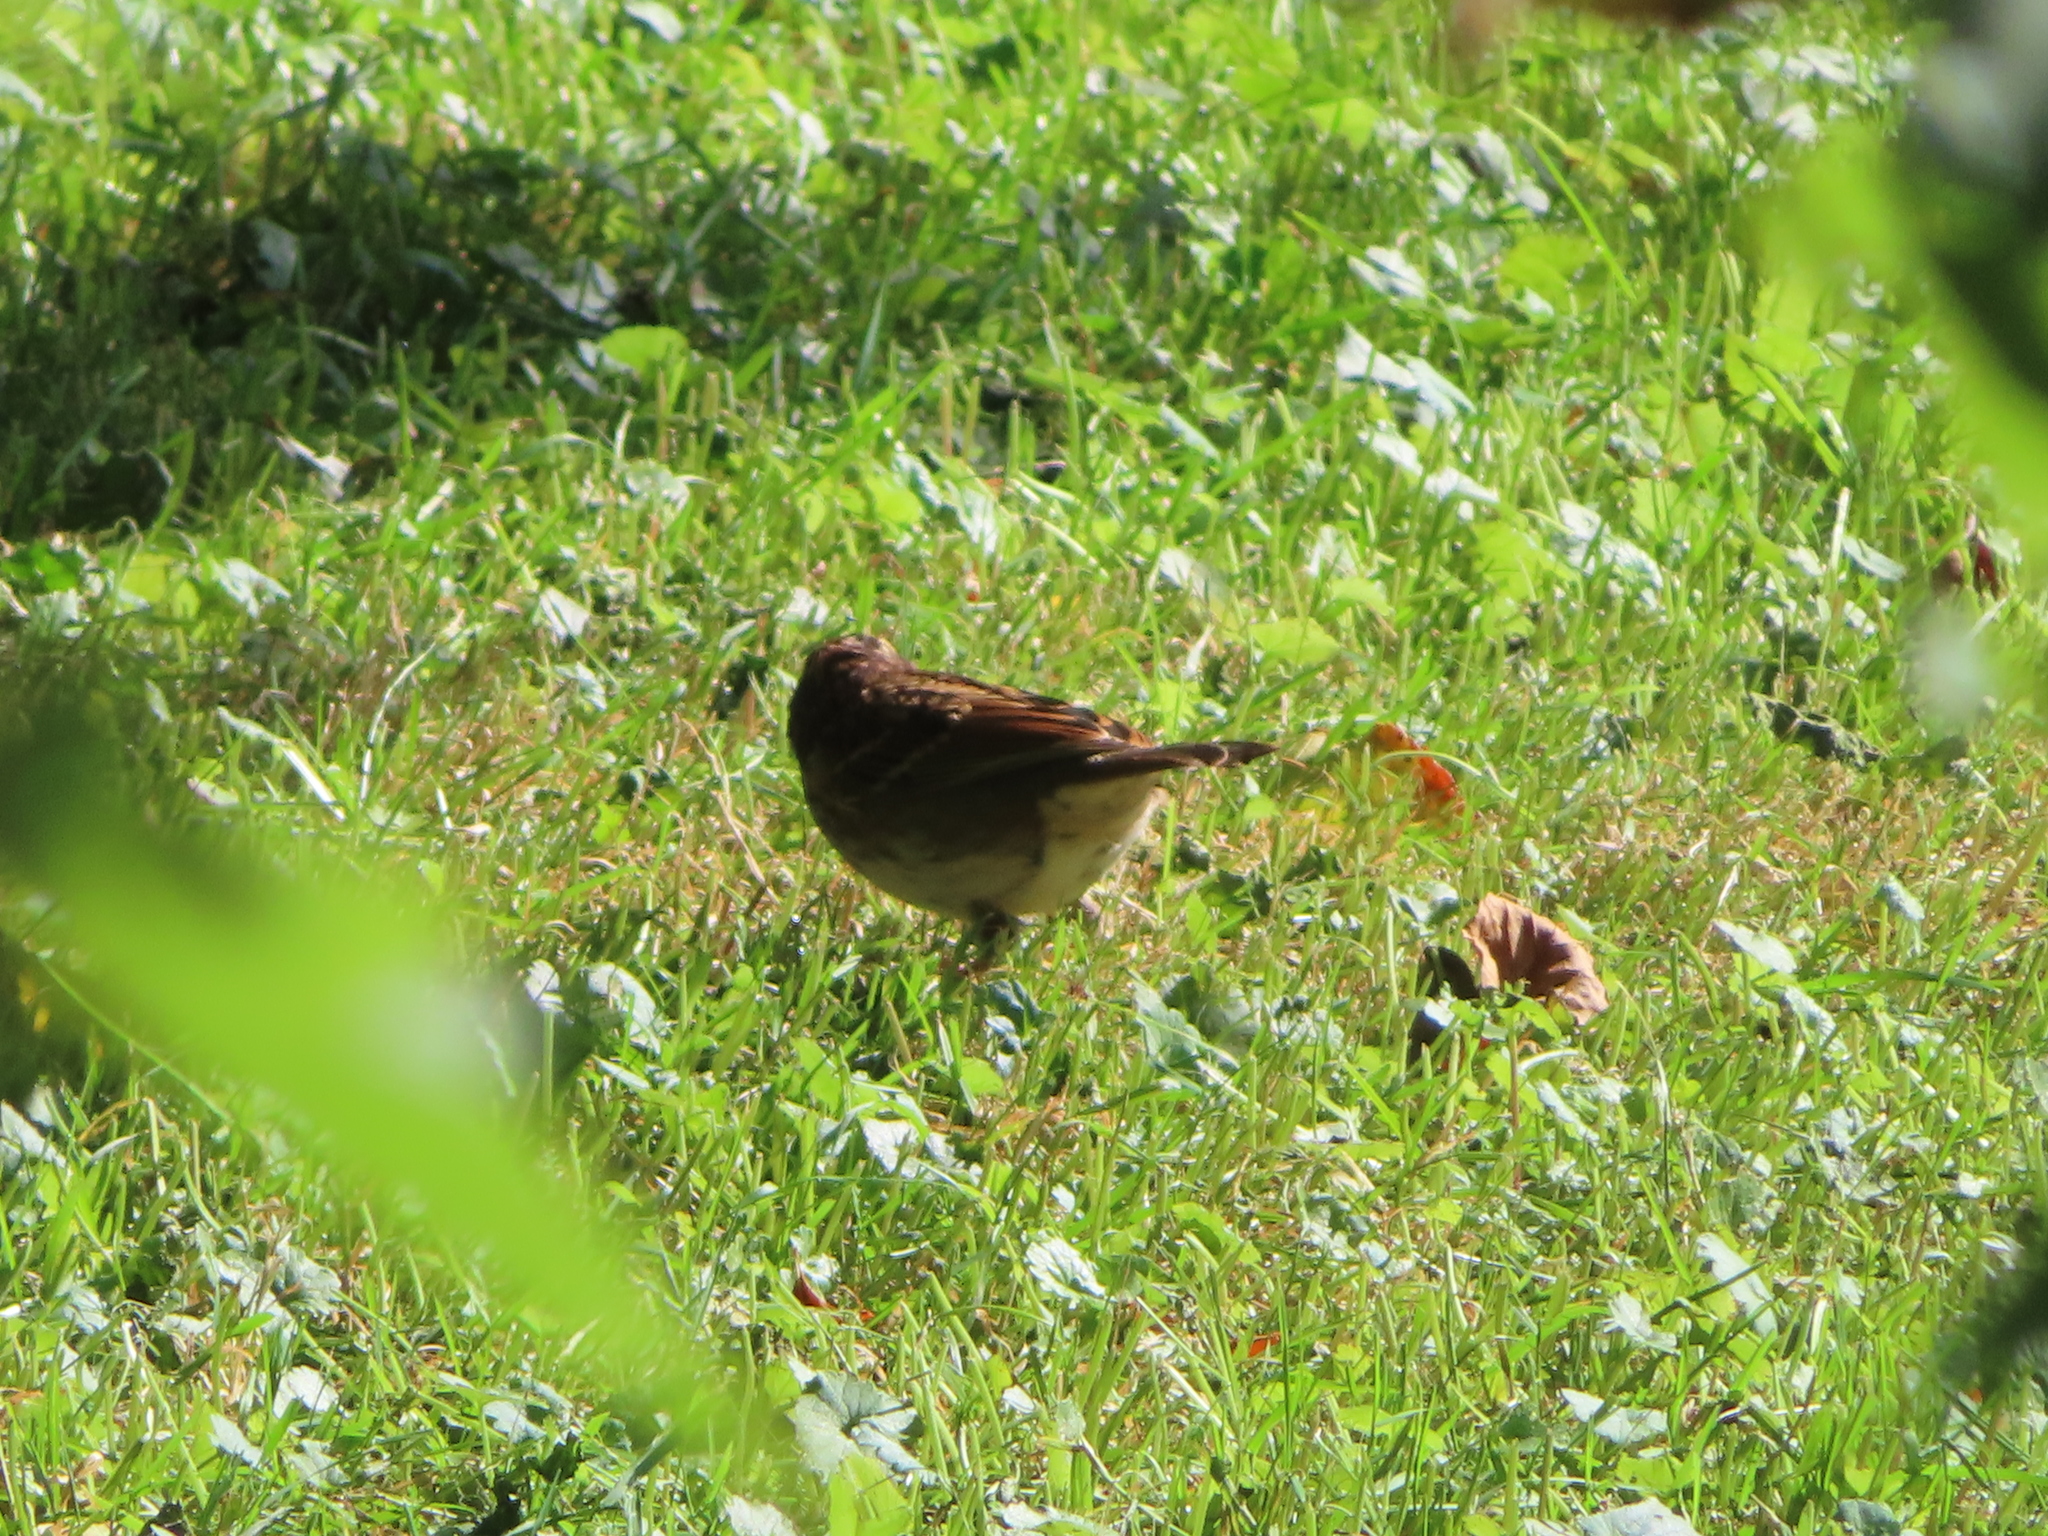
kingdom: Animalia
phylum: Chordata
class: Aves
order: Passeriformes
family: Passerellidae
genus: Zonotrichia
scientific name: Zonotrichia albicollis
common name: White-throated sparrow
